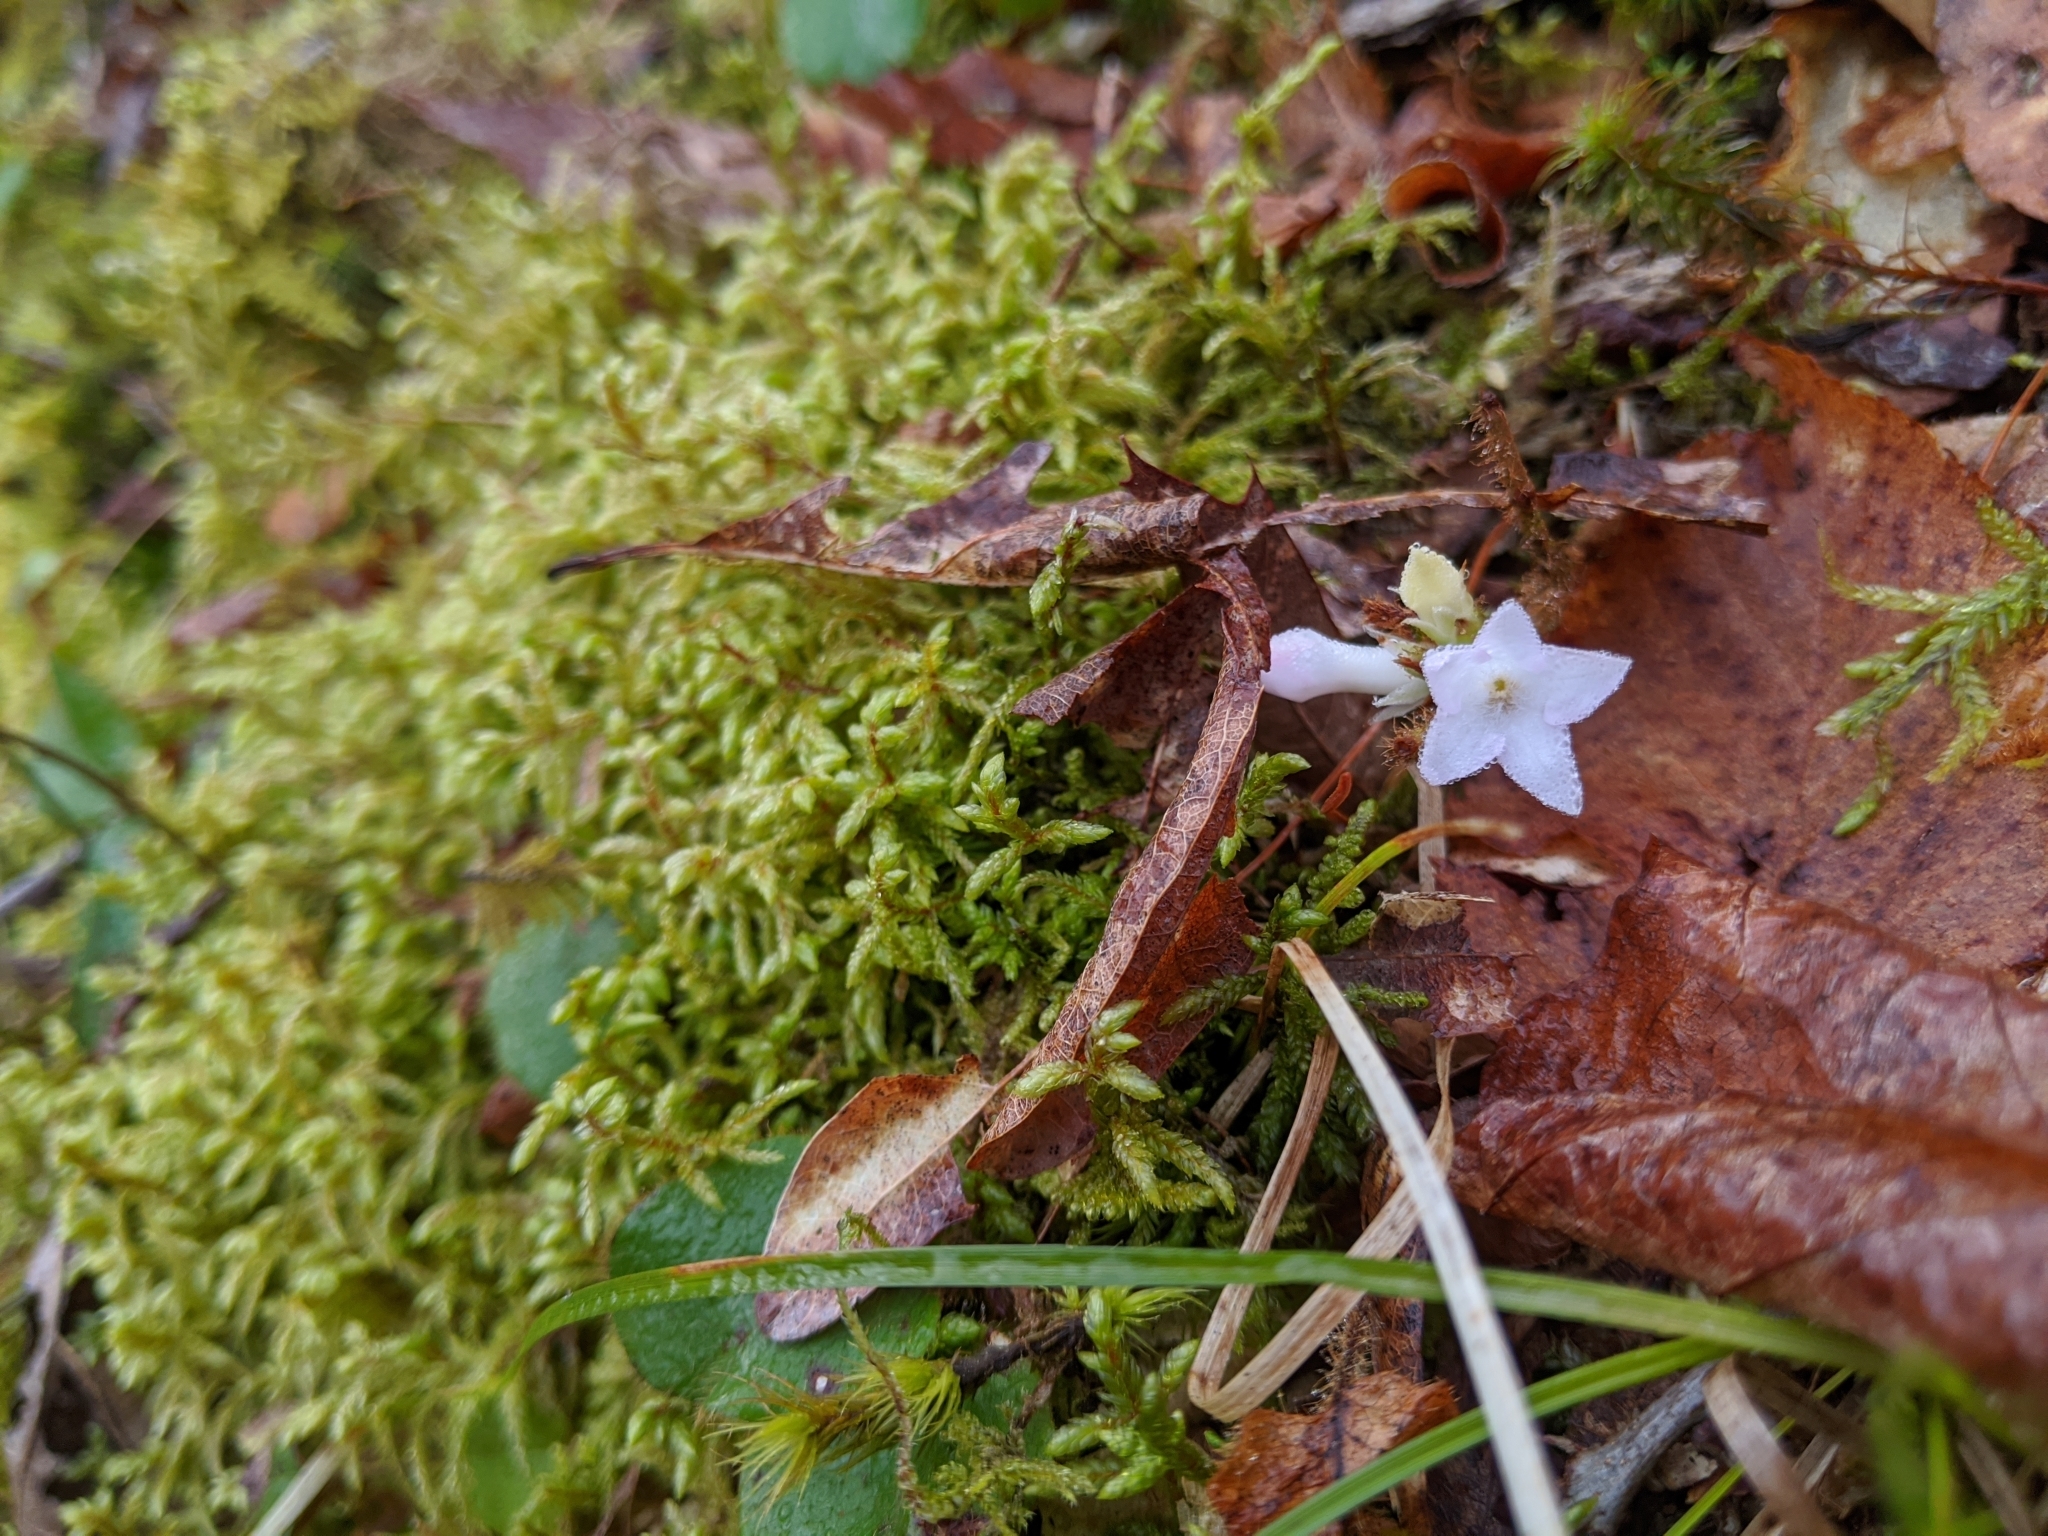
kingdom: Plantae
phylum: Tracheophyta
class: Magnoliopsida
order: Ericales
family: Ericaceae
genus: Epigaea
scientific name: Epigaea repens
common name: Gravelroot
